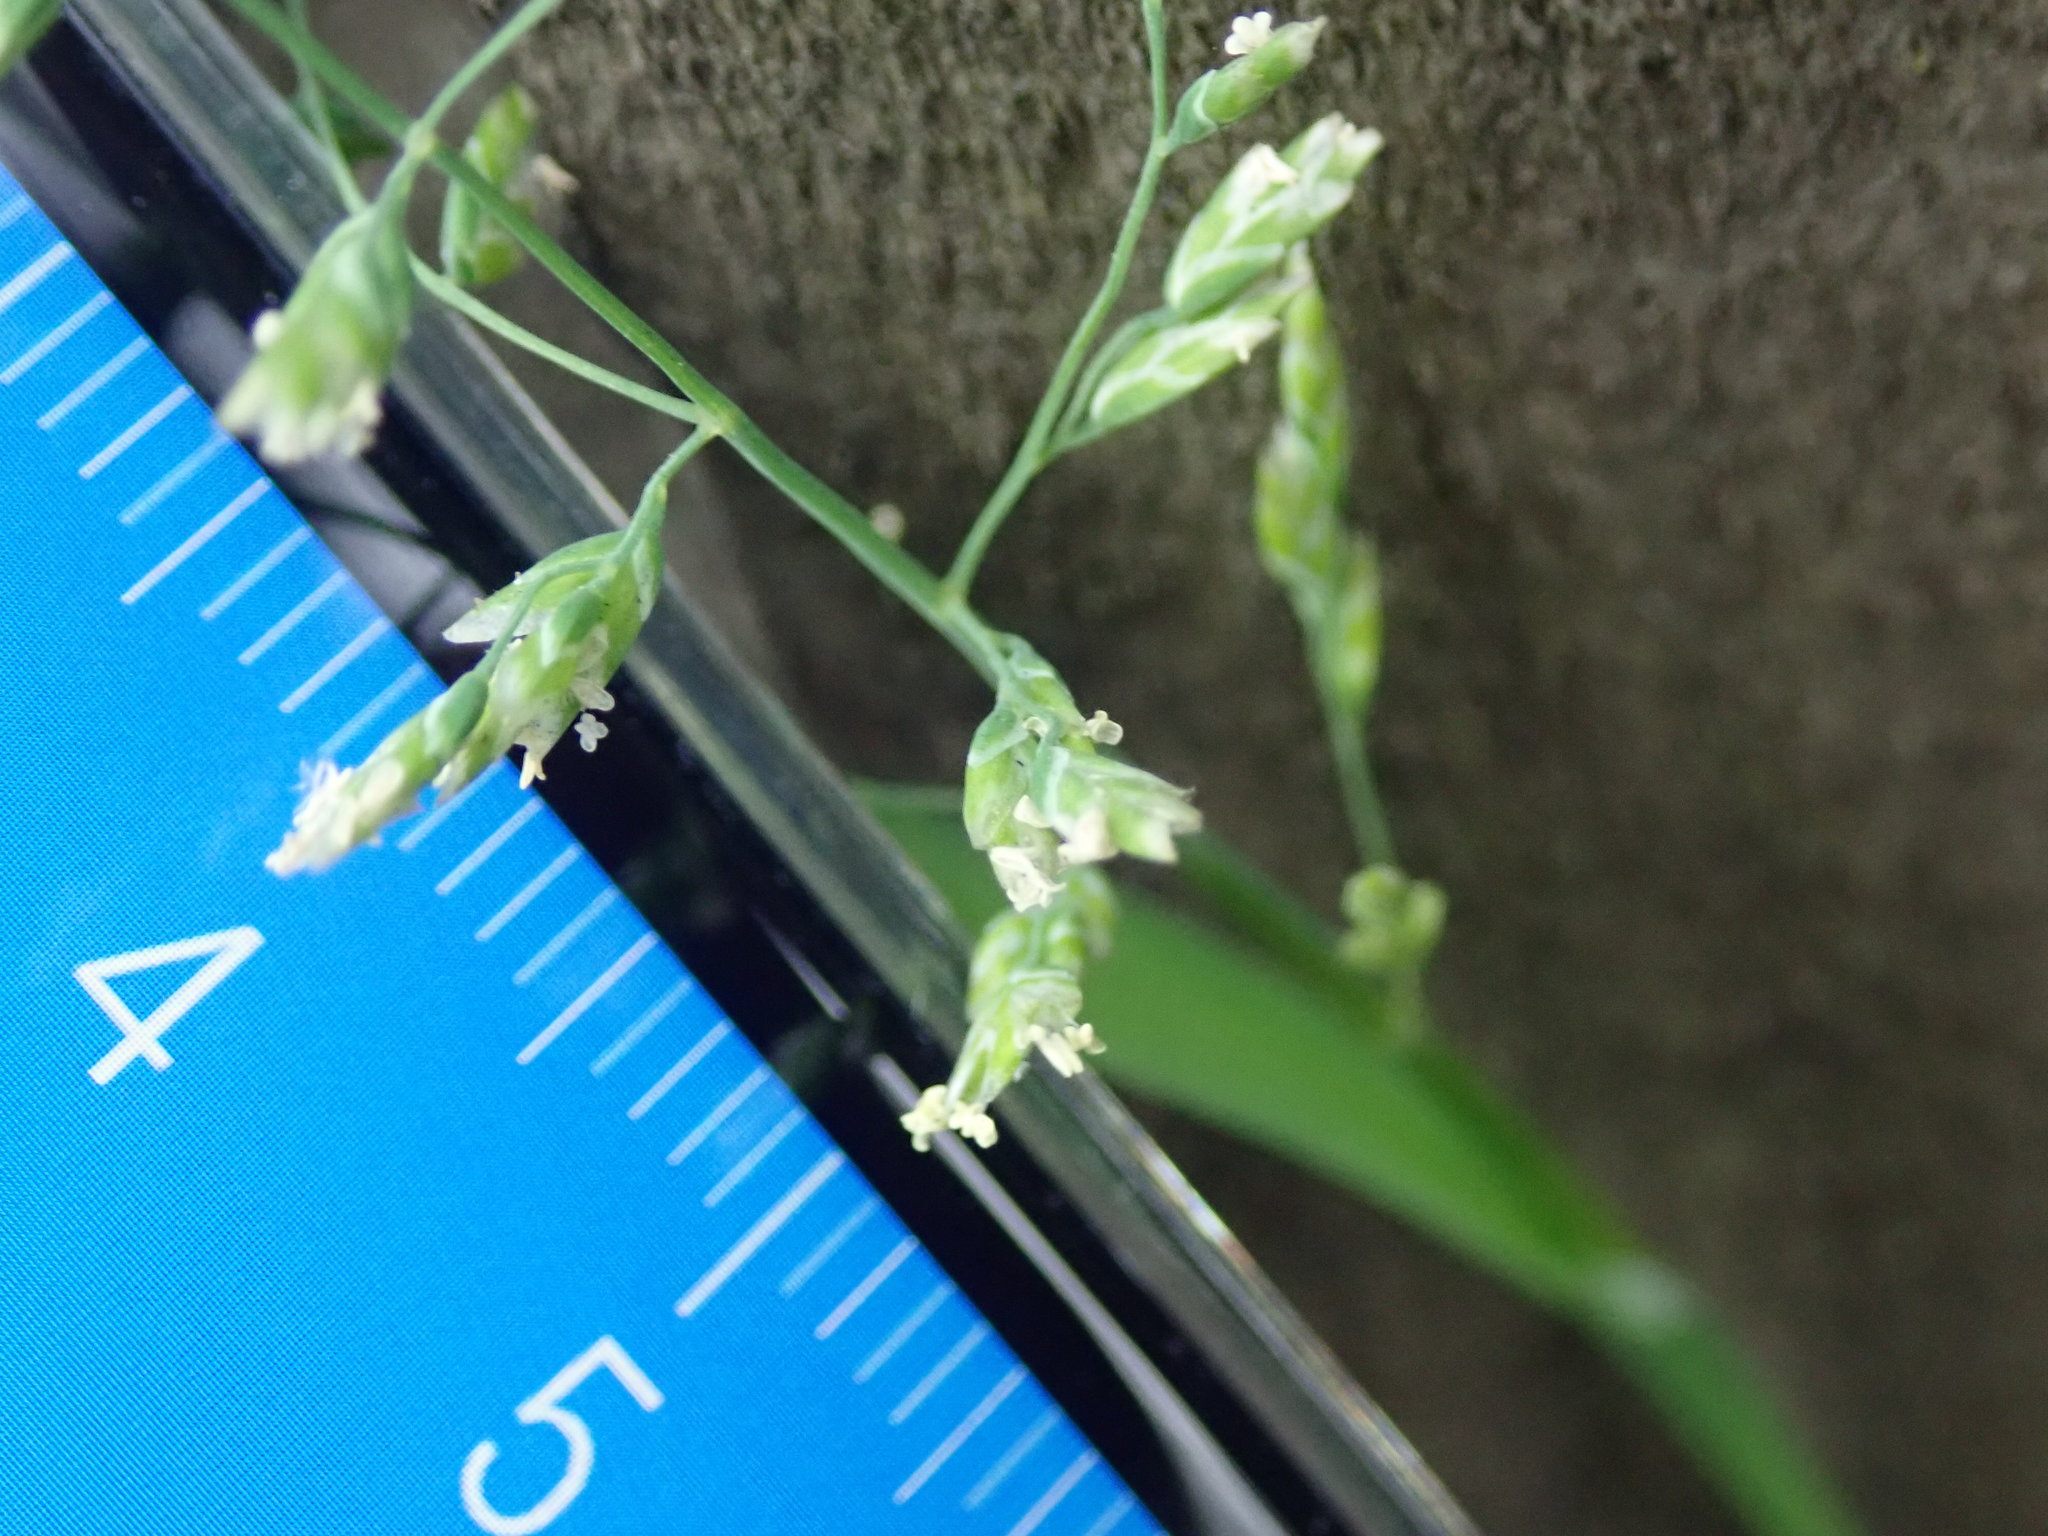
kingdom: Plantae
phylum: Tracheophyta
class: Liliopsida
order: Poales
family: Poaceae
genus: Poa
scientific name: Poa annua
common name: Annual bluegrass
